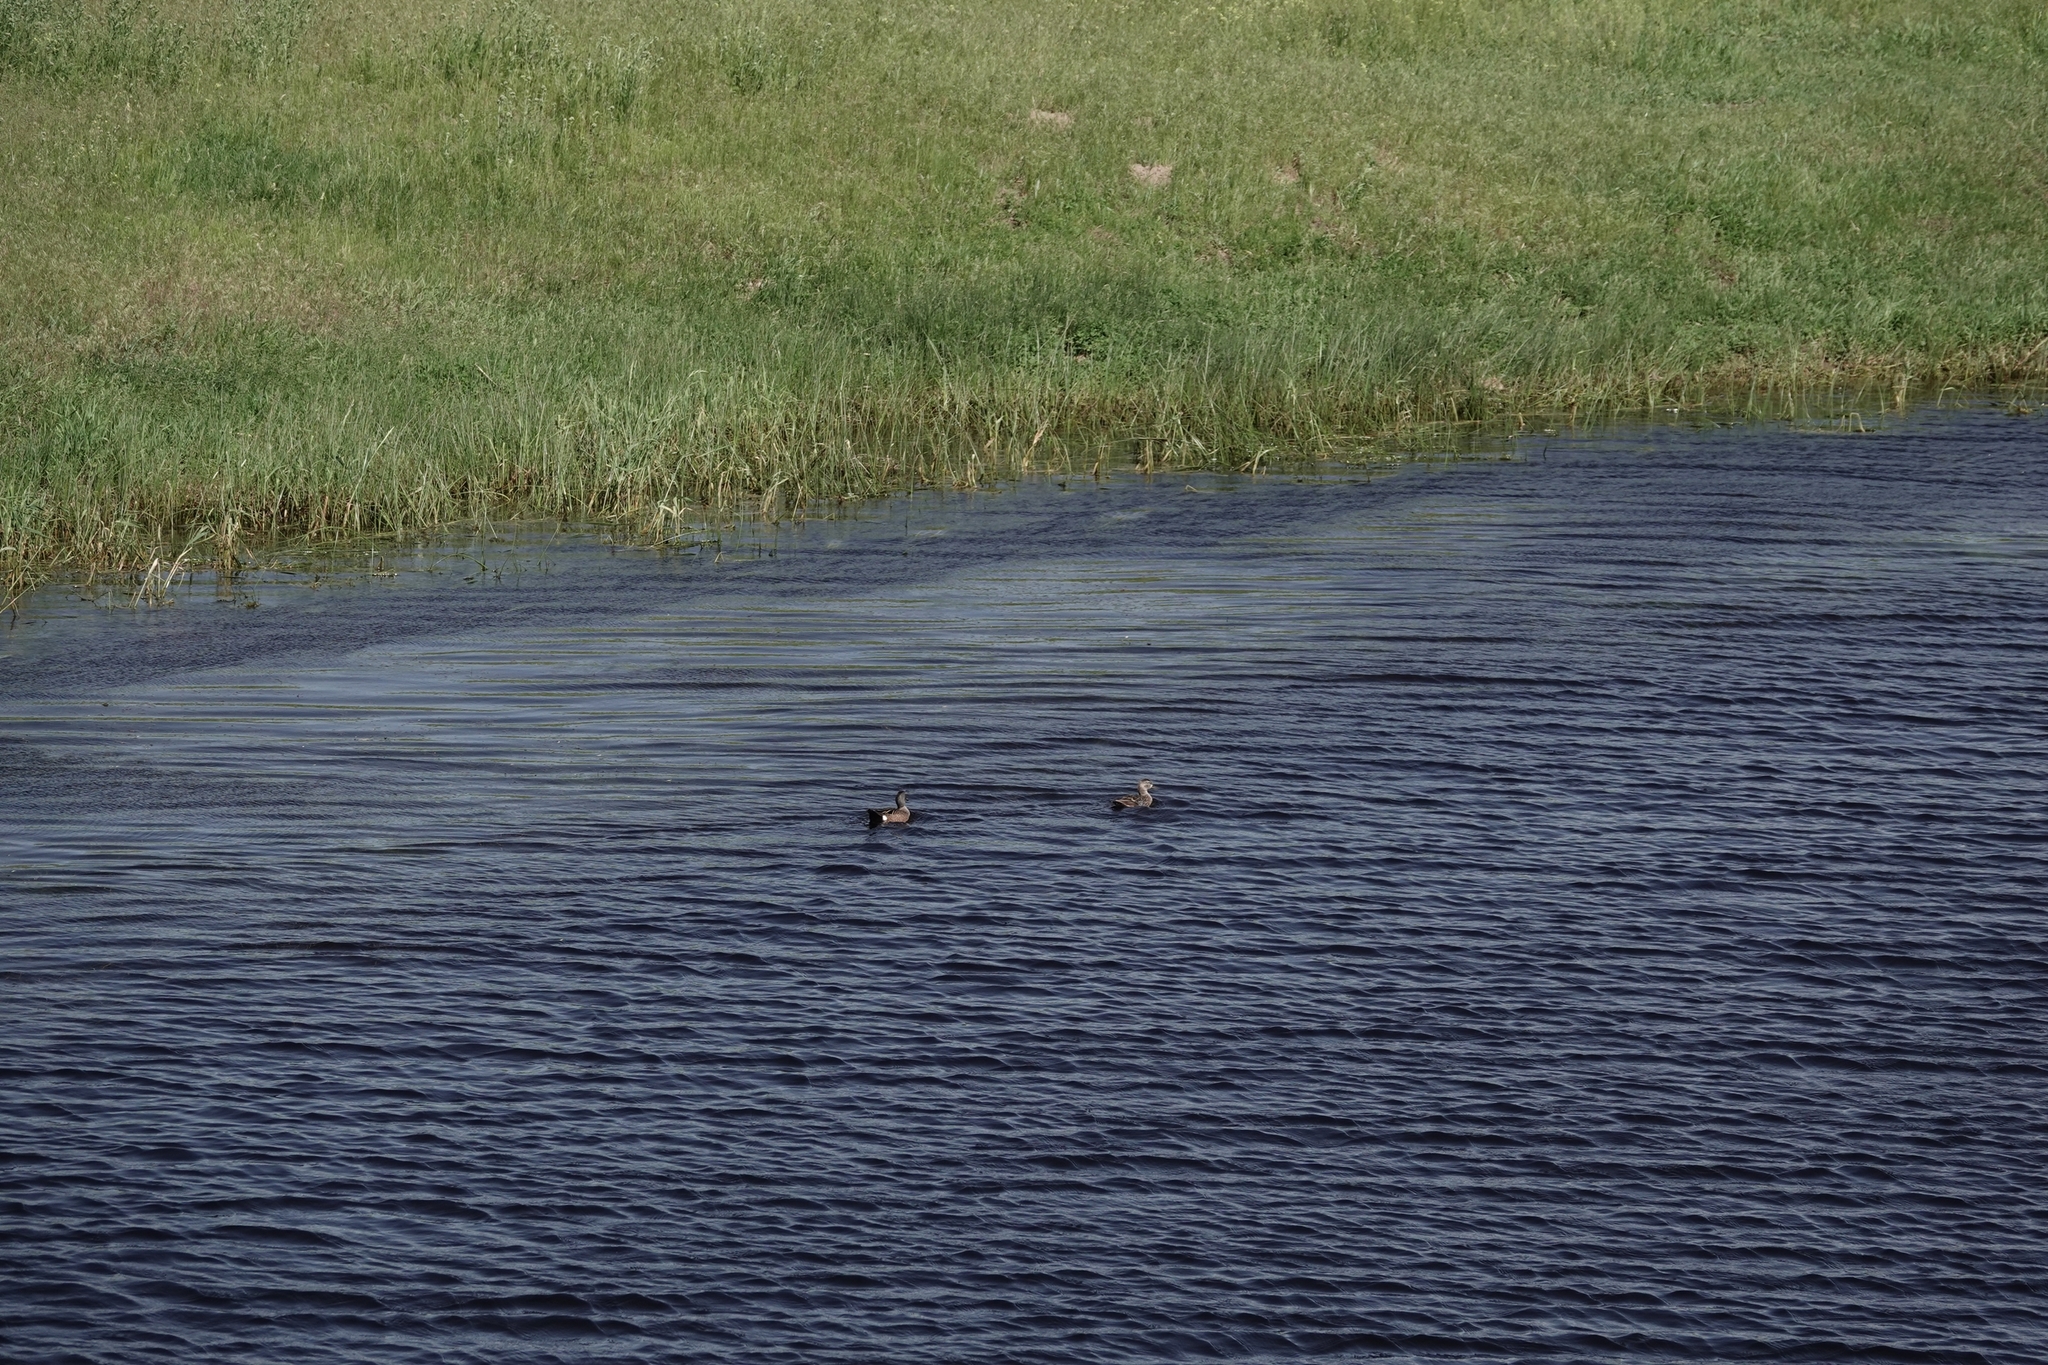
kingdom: Animalia
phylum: Chordata
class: Aves
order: Anseriformes
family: Anatidae
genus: Spatula
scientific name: Spatula discors
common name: Blue-winged teal
